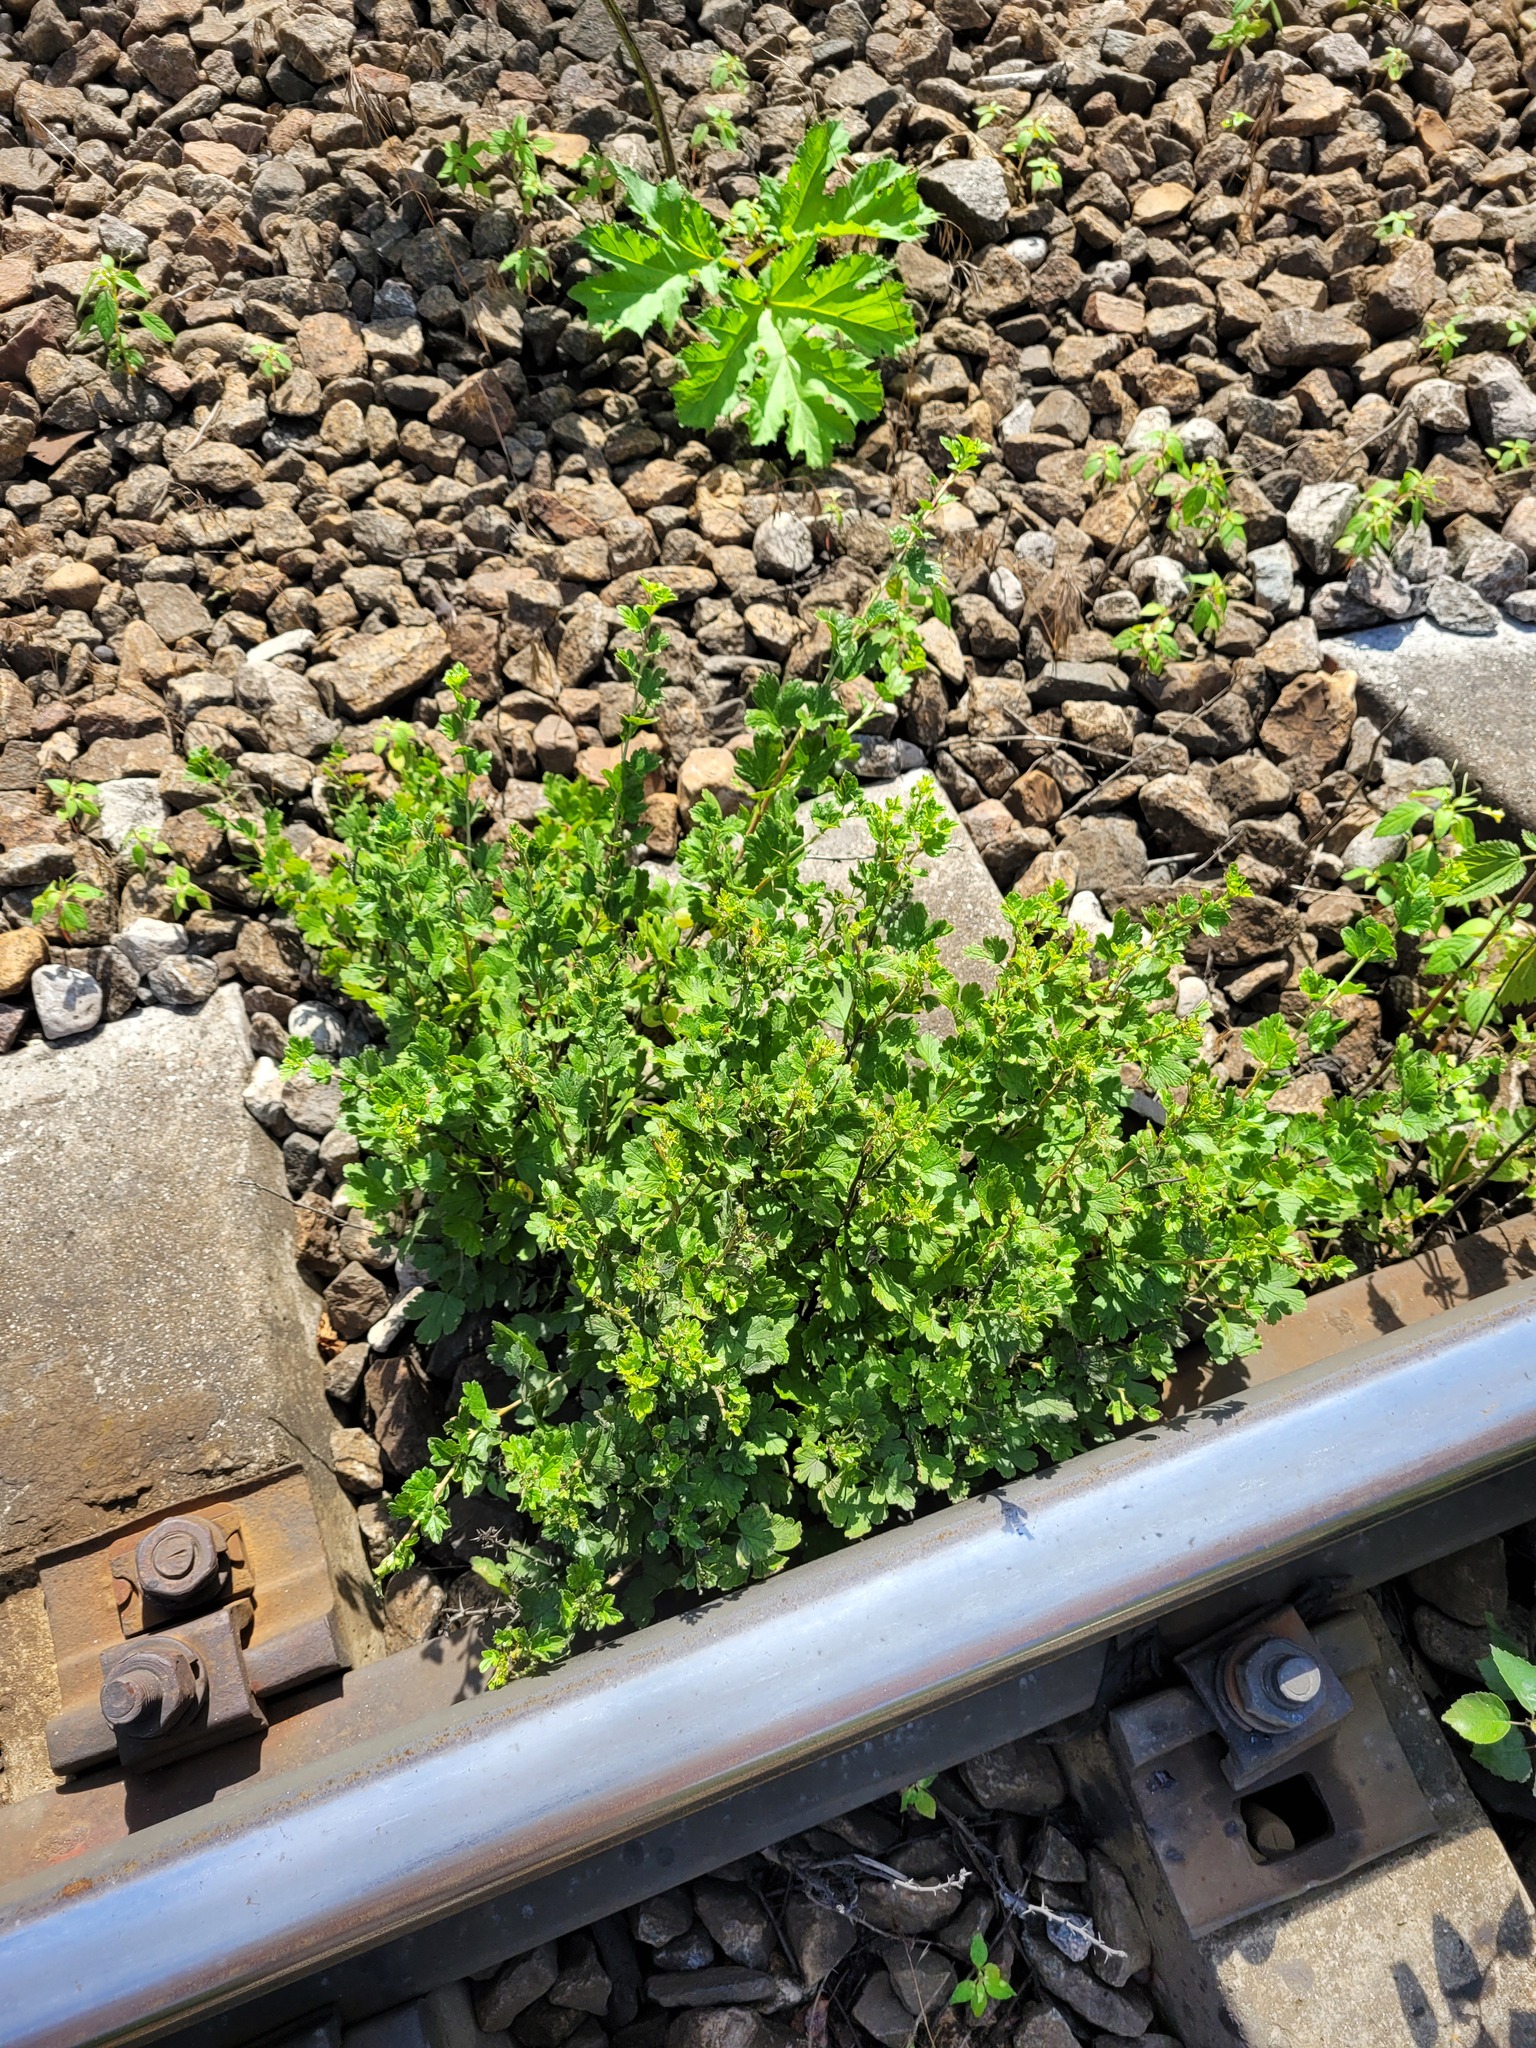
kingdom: Plantae
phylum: Tracheophyta
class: Magnoliopsida
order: Saxifragales
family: Grossulariaceae
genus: Ribes
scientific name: Ribes uva-crispa
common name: Gooseberry
